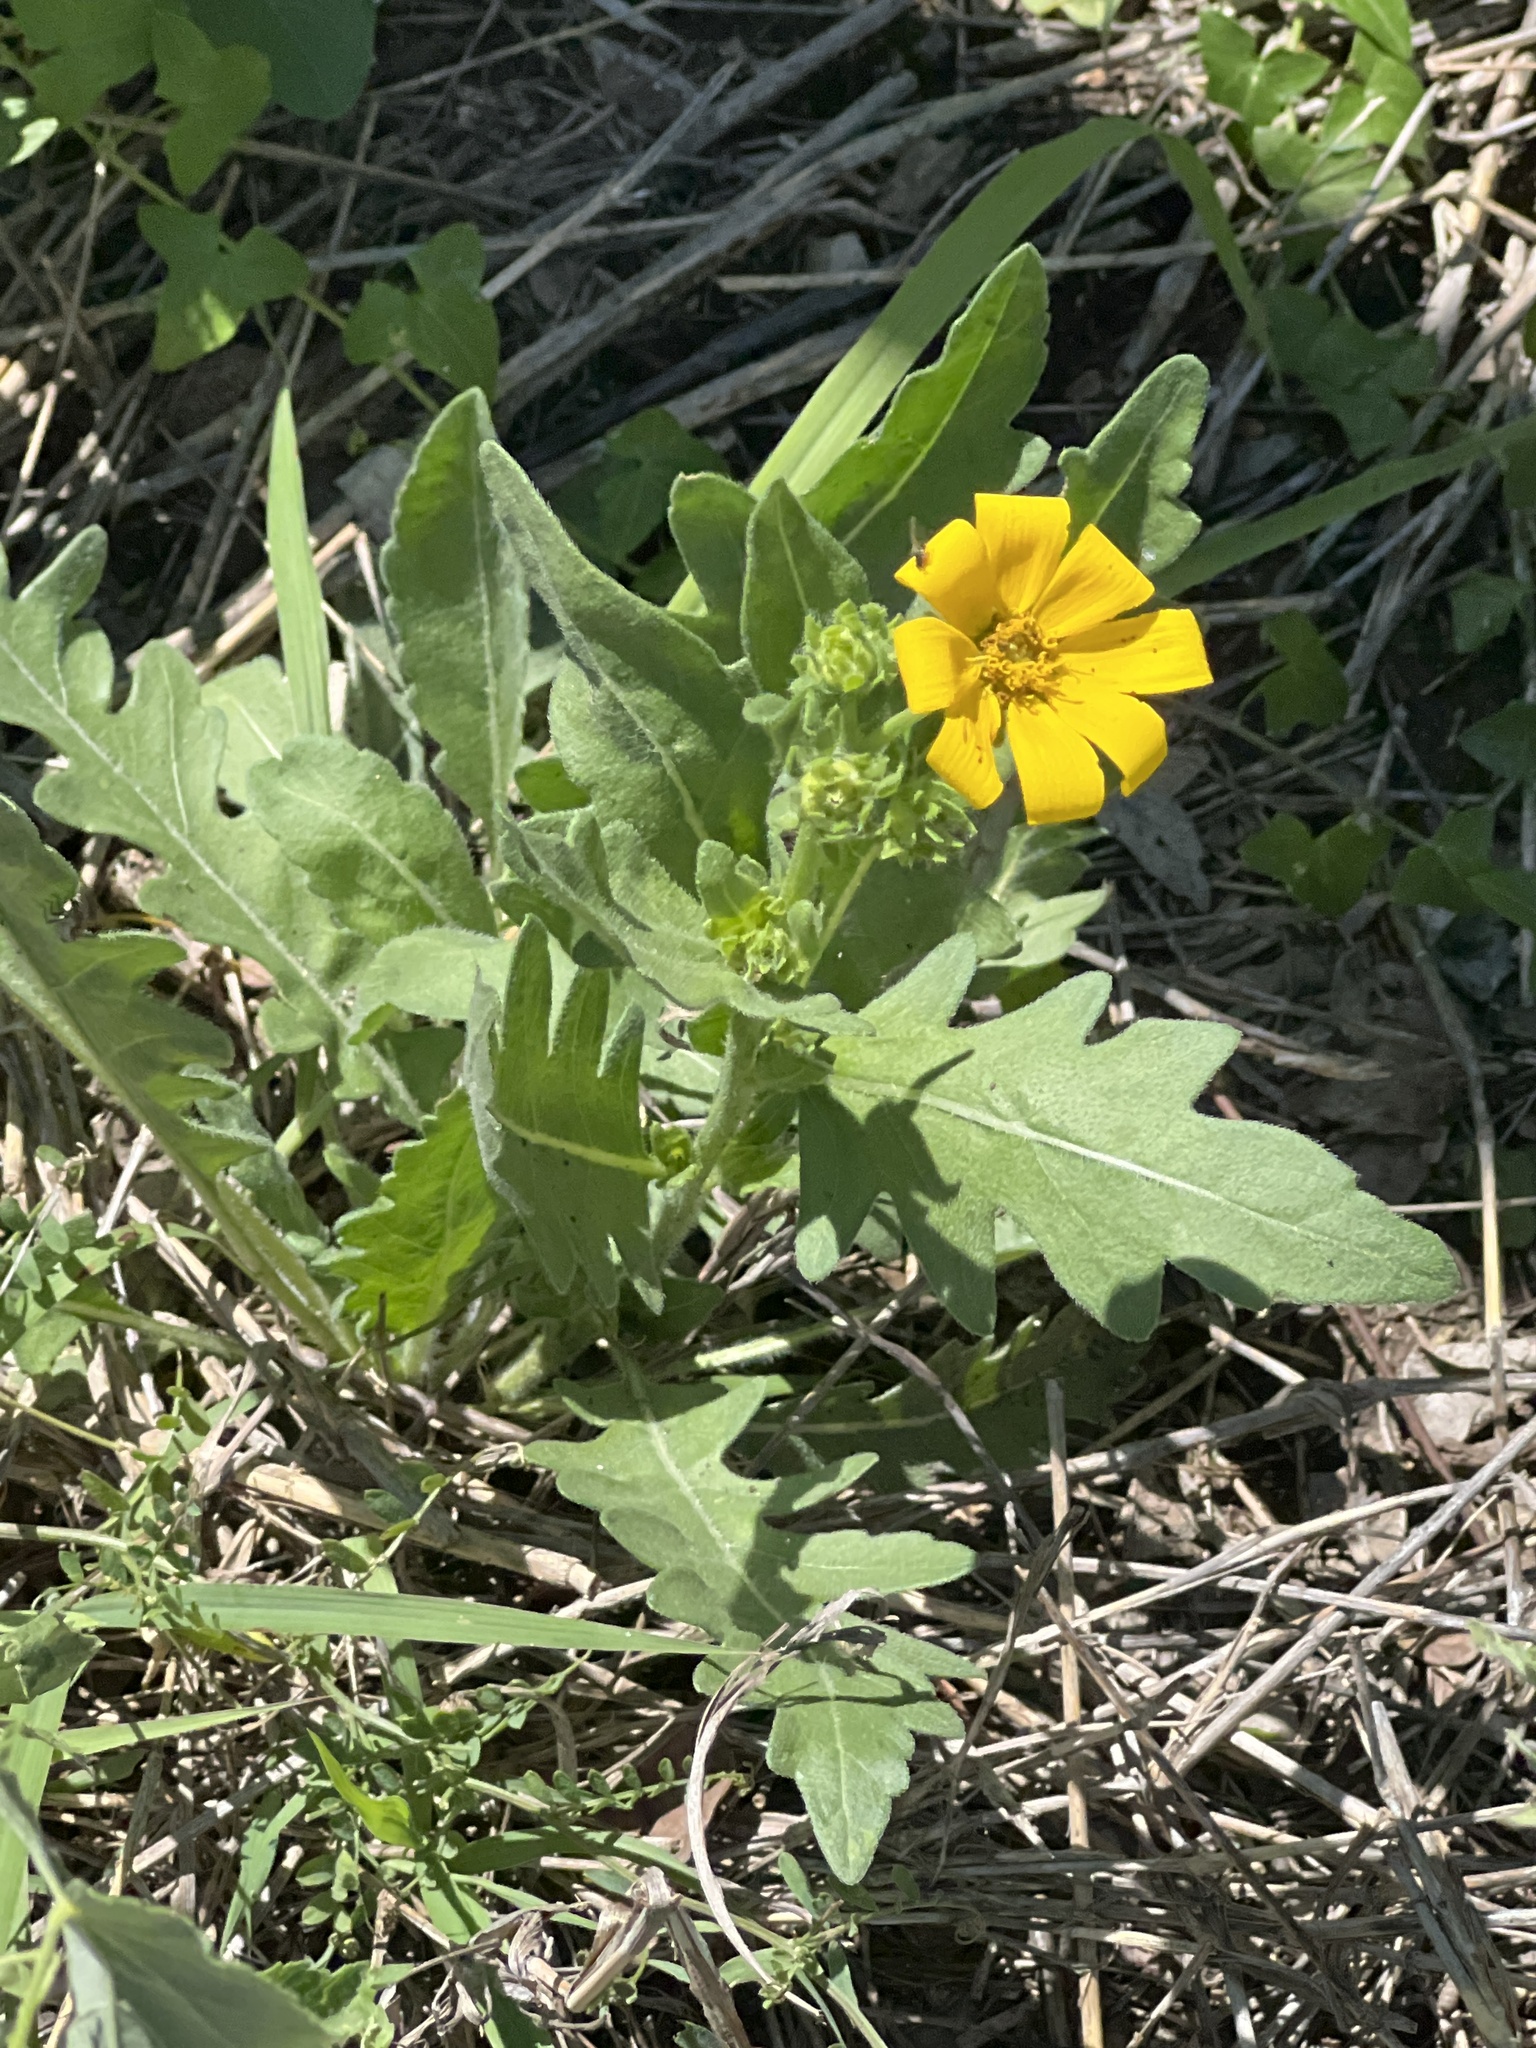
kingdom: Plantae
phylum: Tracheophyta
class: Magnoliopsida
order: Asterales
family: Asteraceae
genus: Engelmannia
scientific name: Engelmannia peristenia
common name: Engelmann's daisy
